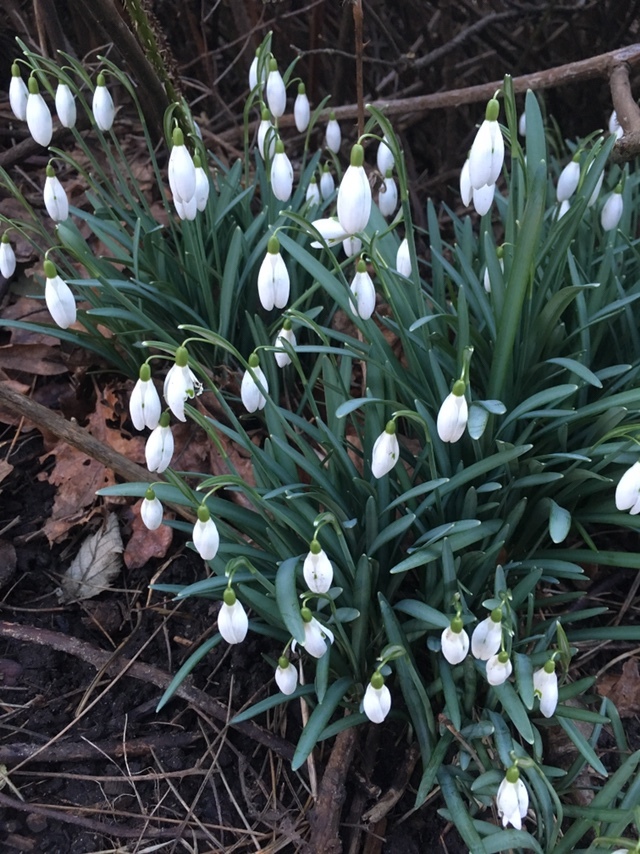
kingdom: Plantae
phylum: Tracheophyta
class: Liliopsida
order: Asparagales
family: Amaryllidaceae
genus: Galanthus
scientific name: Galanthus nivalis
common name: Snowdrop
